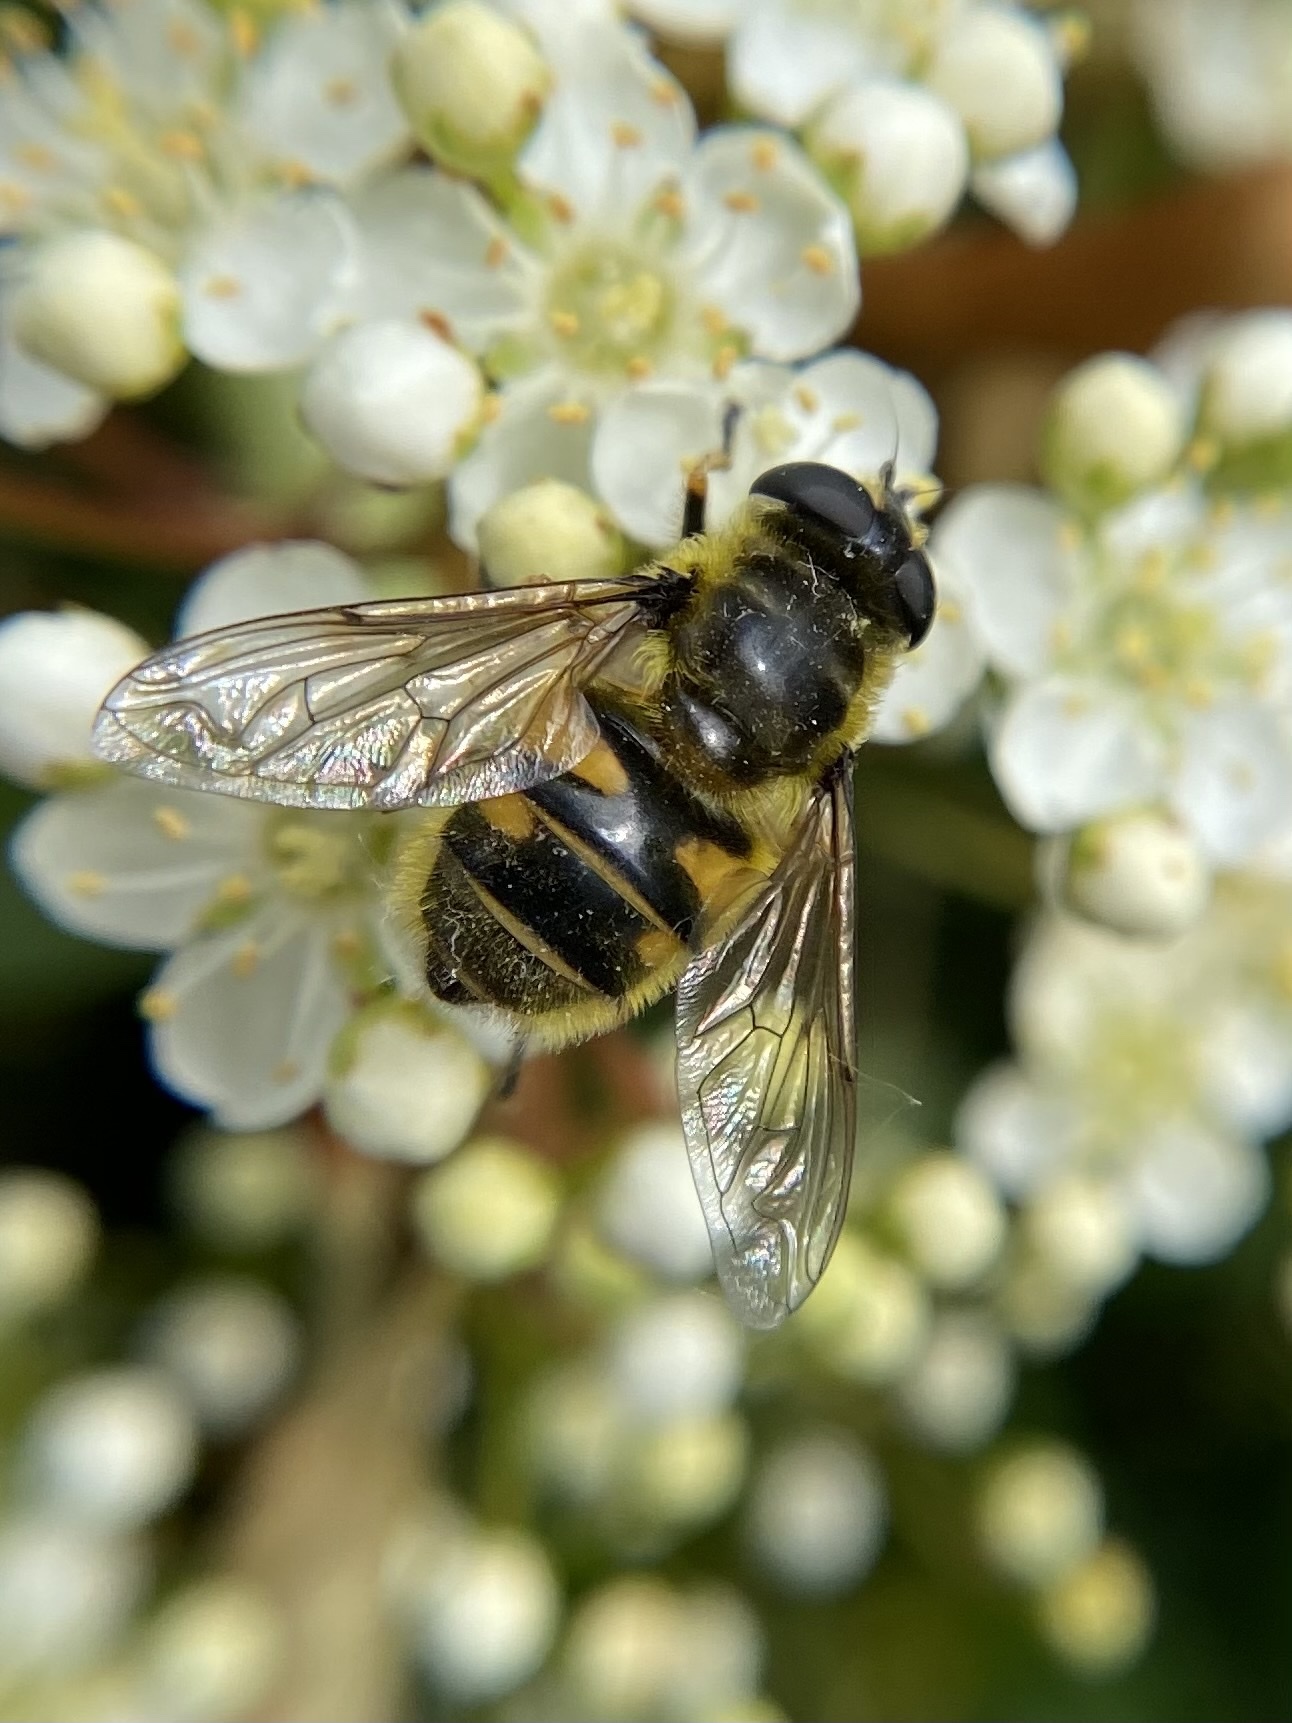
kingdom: Animalia
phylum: Arthropoda
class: Insecta
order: Diptera
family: Syrphidae
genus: Myathropa
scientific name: Myathropa florea
